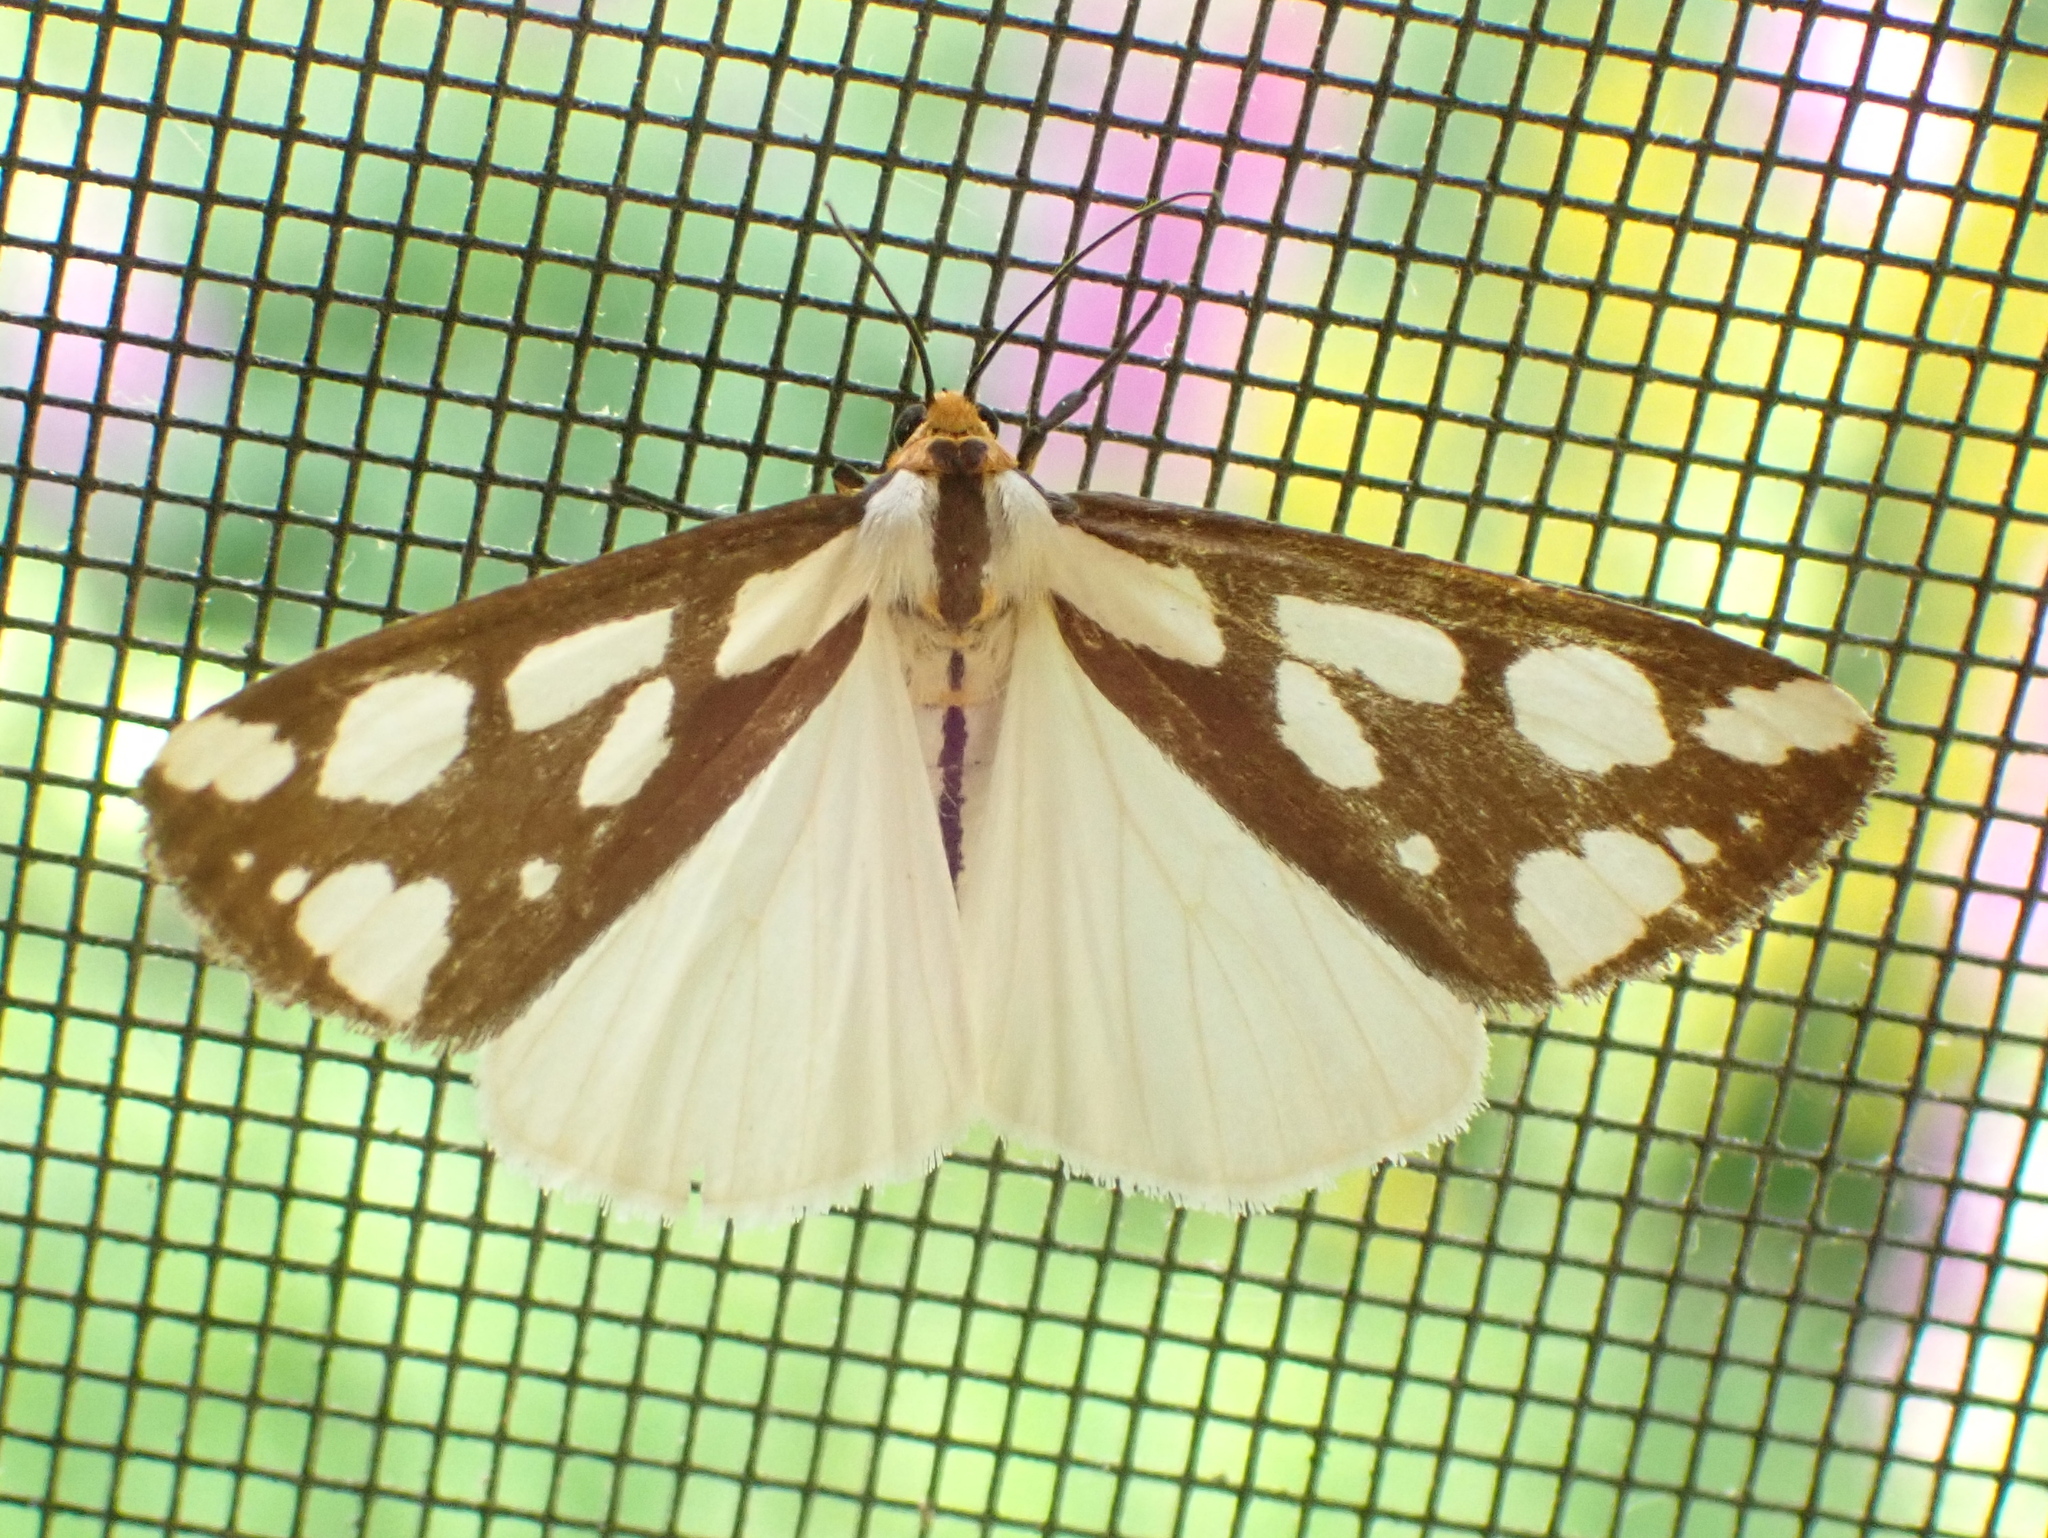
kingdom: Animalia
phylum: Arthropoda
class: Insecta
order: Lepidoptera
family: Erebidae
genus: Haploa
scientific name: Haploa confusa
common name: Confused haploa moth
